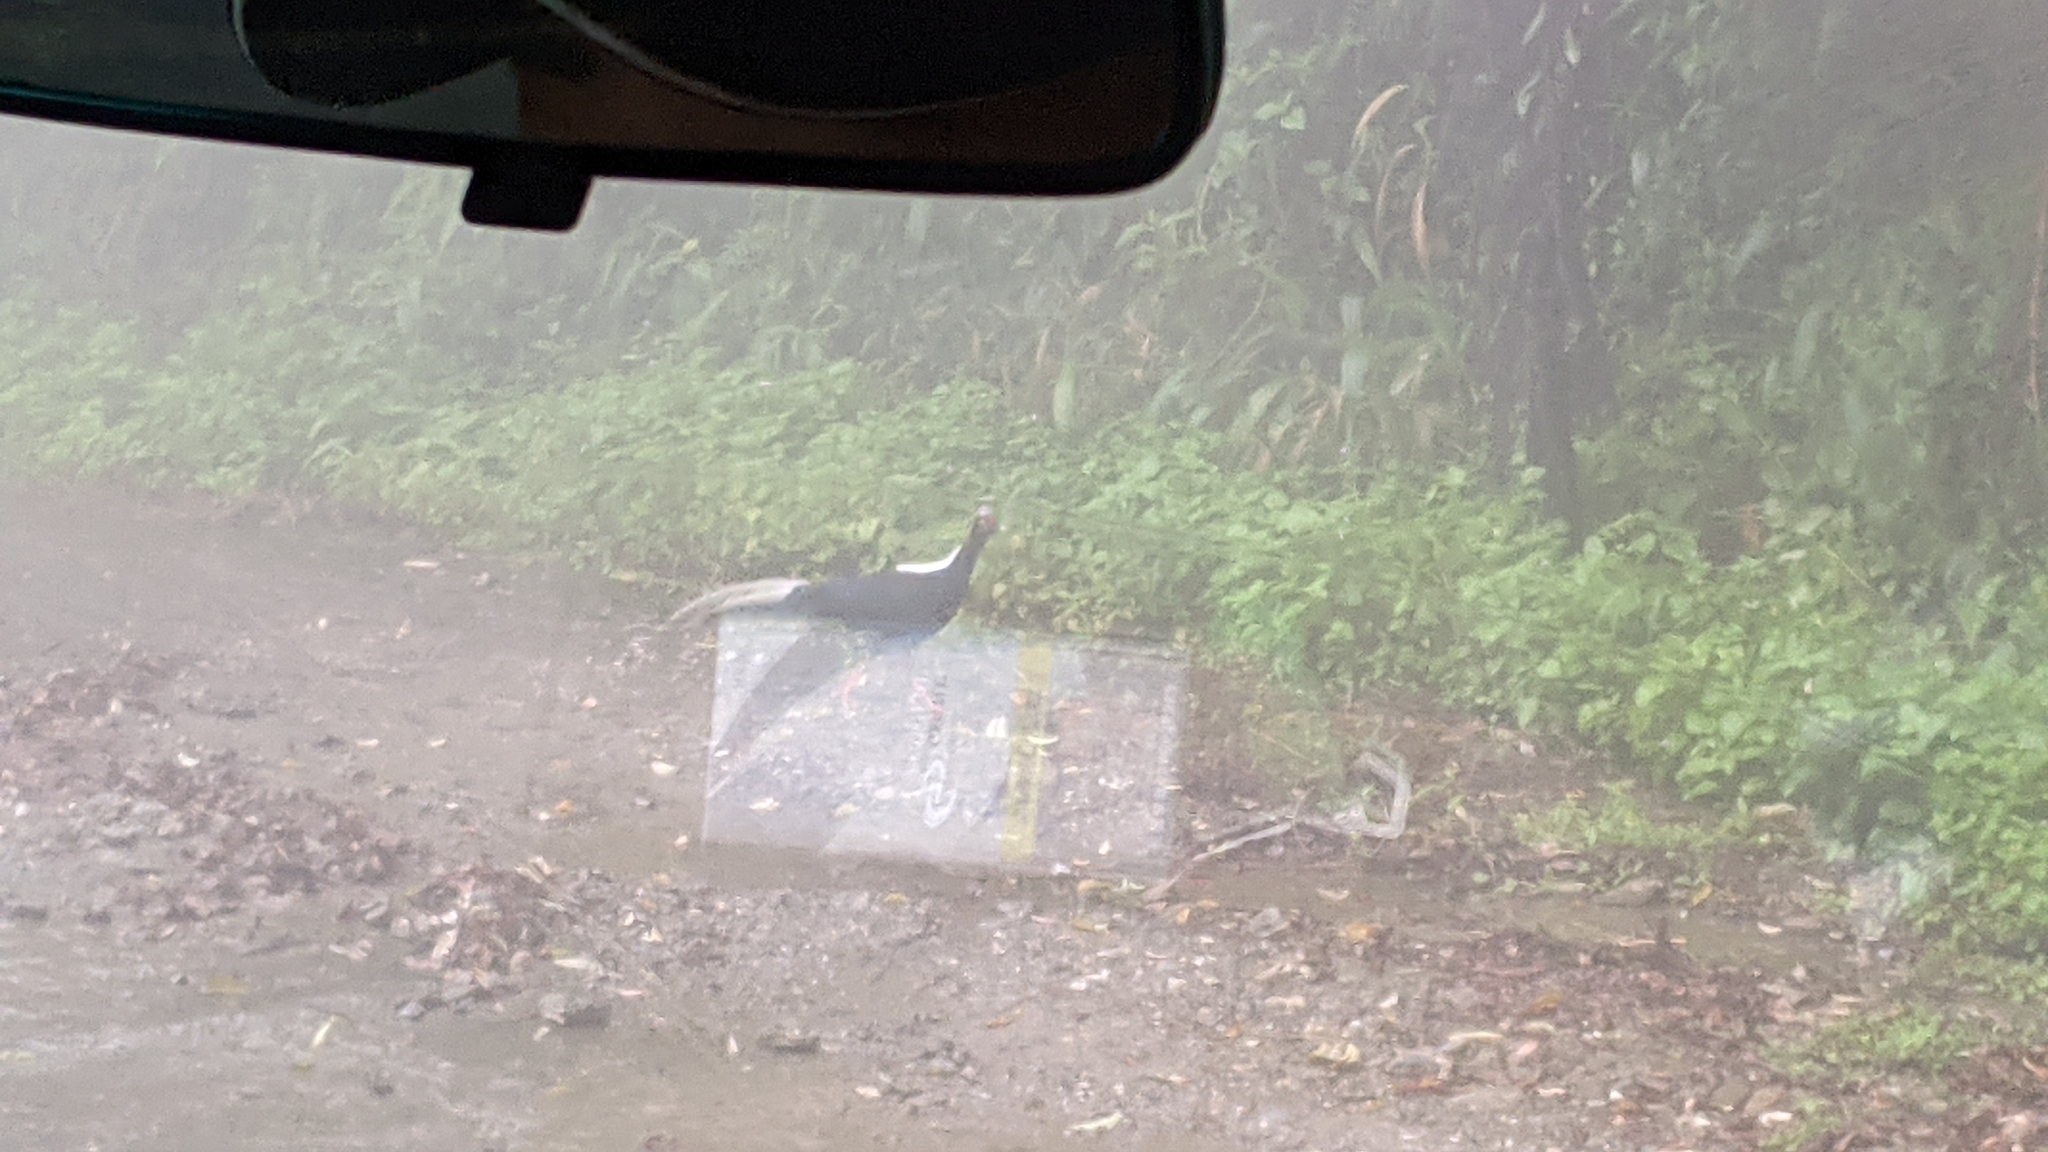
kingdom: Animalia
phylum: Chordata
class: Aves
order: Galliformes
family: Phasianidae
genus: Lophura
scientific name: Lophura swinhoii
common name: Swinhoe's pheasant
